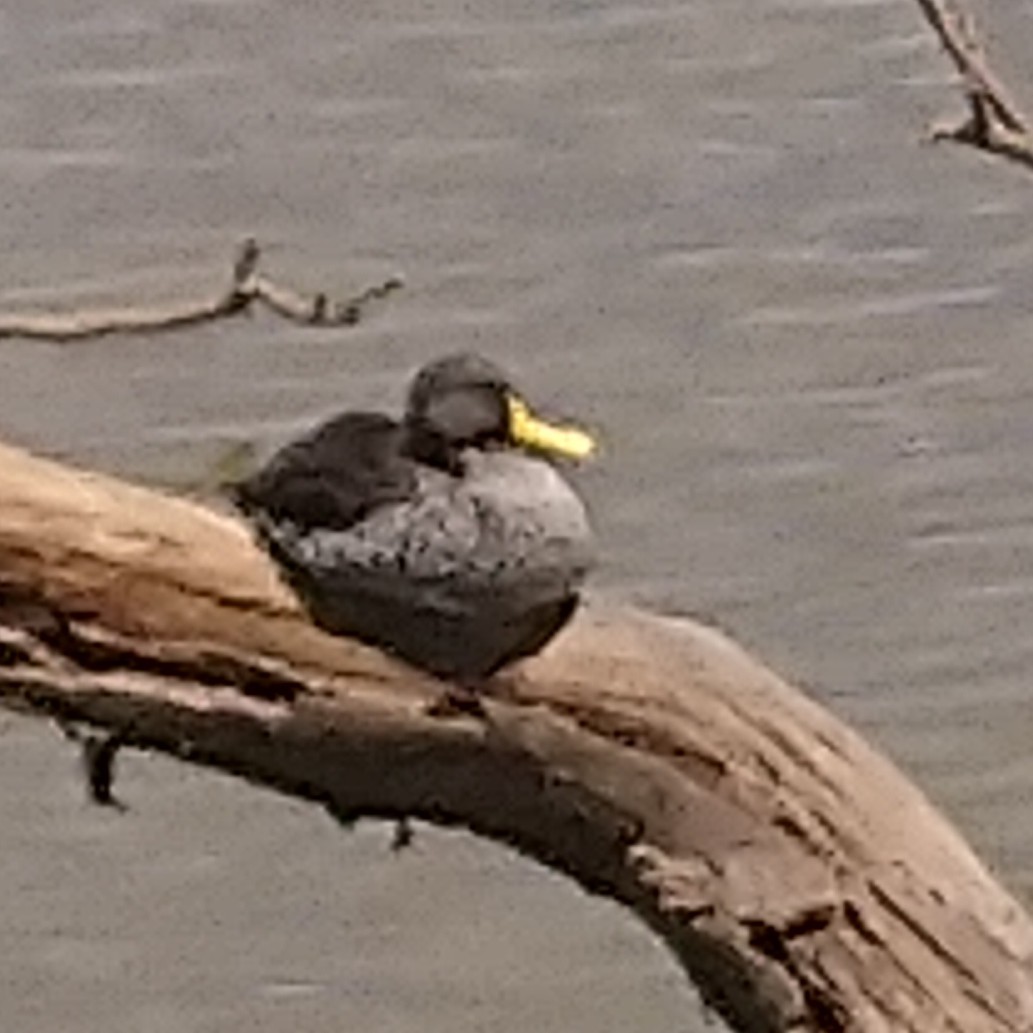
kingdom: Animalia
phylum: Chordata
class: Aves
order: Anseriformes
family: Anatidae
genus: Anas
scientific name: Anas undulata
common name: Yellow-billed duck
